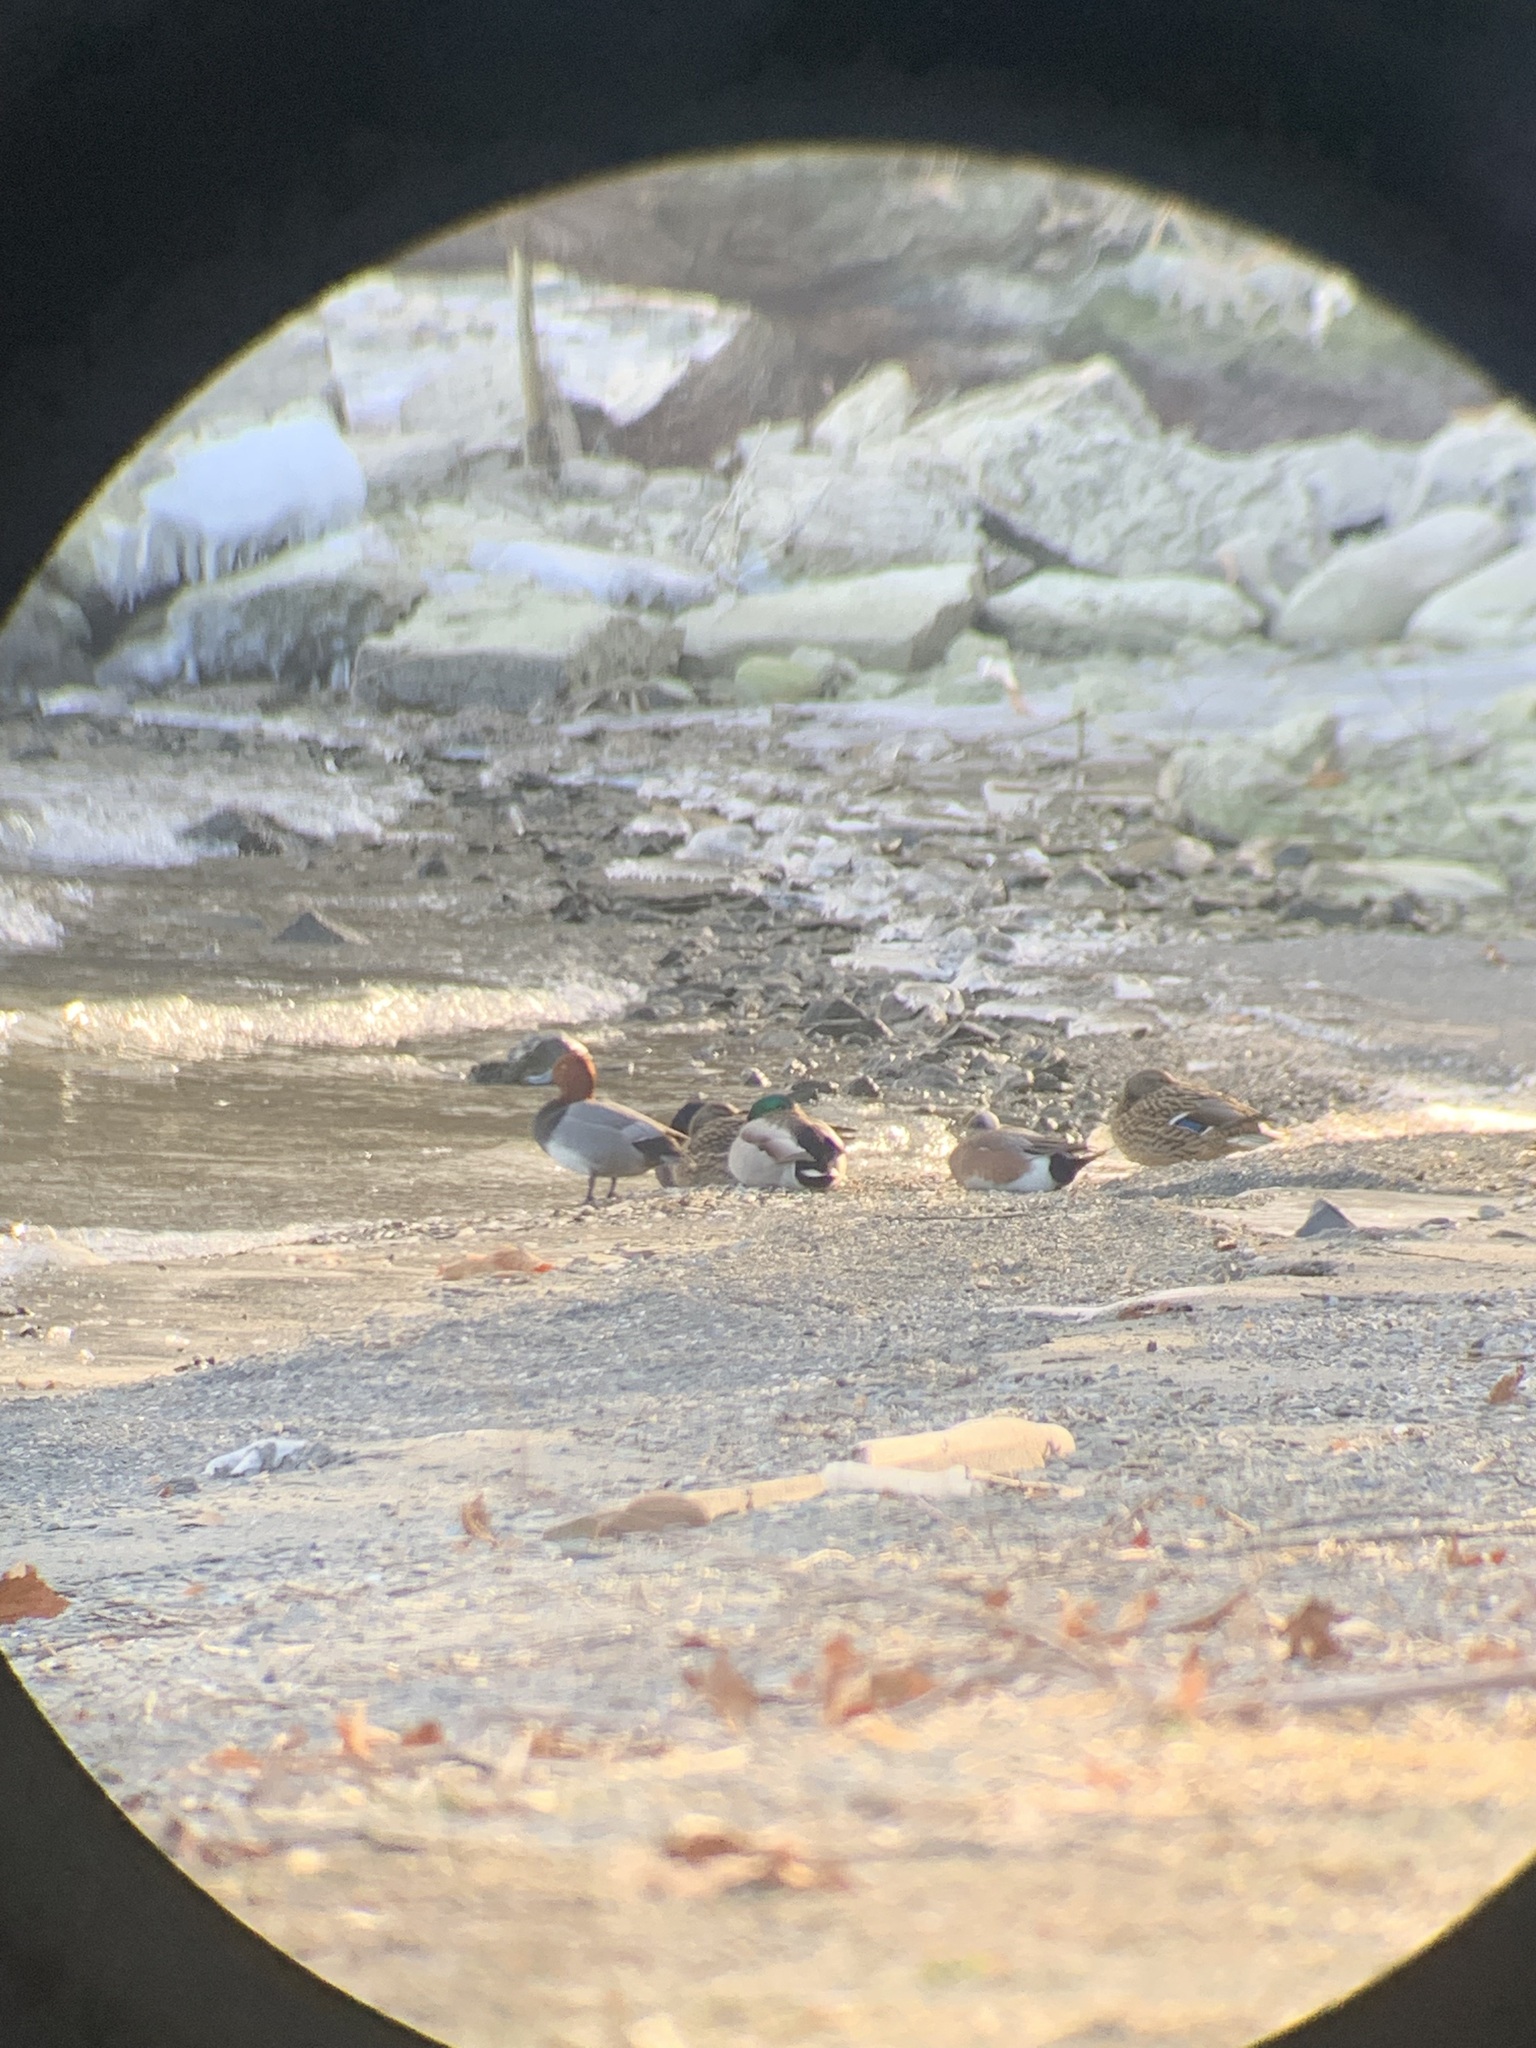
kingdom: Animalia
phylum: Chordata
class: Aves
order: Anseriformes
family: Anatidae
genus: Aythya
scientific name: Aythya americana
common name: Redhead
